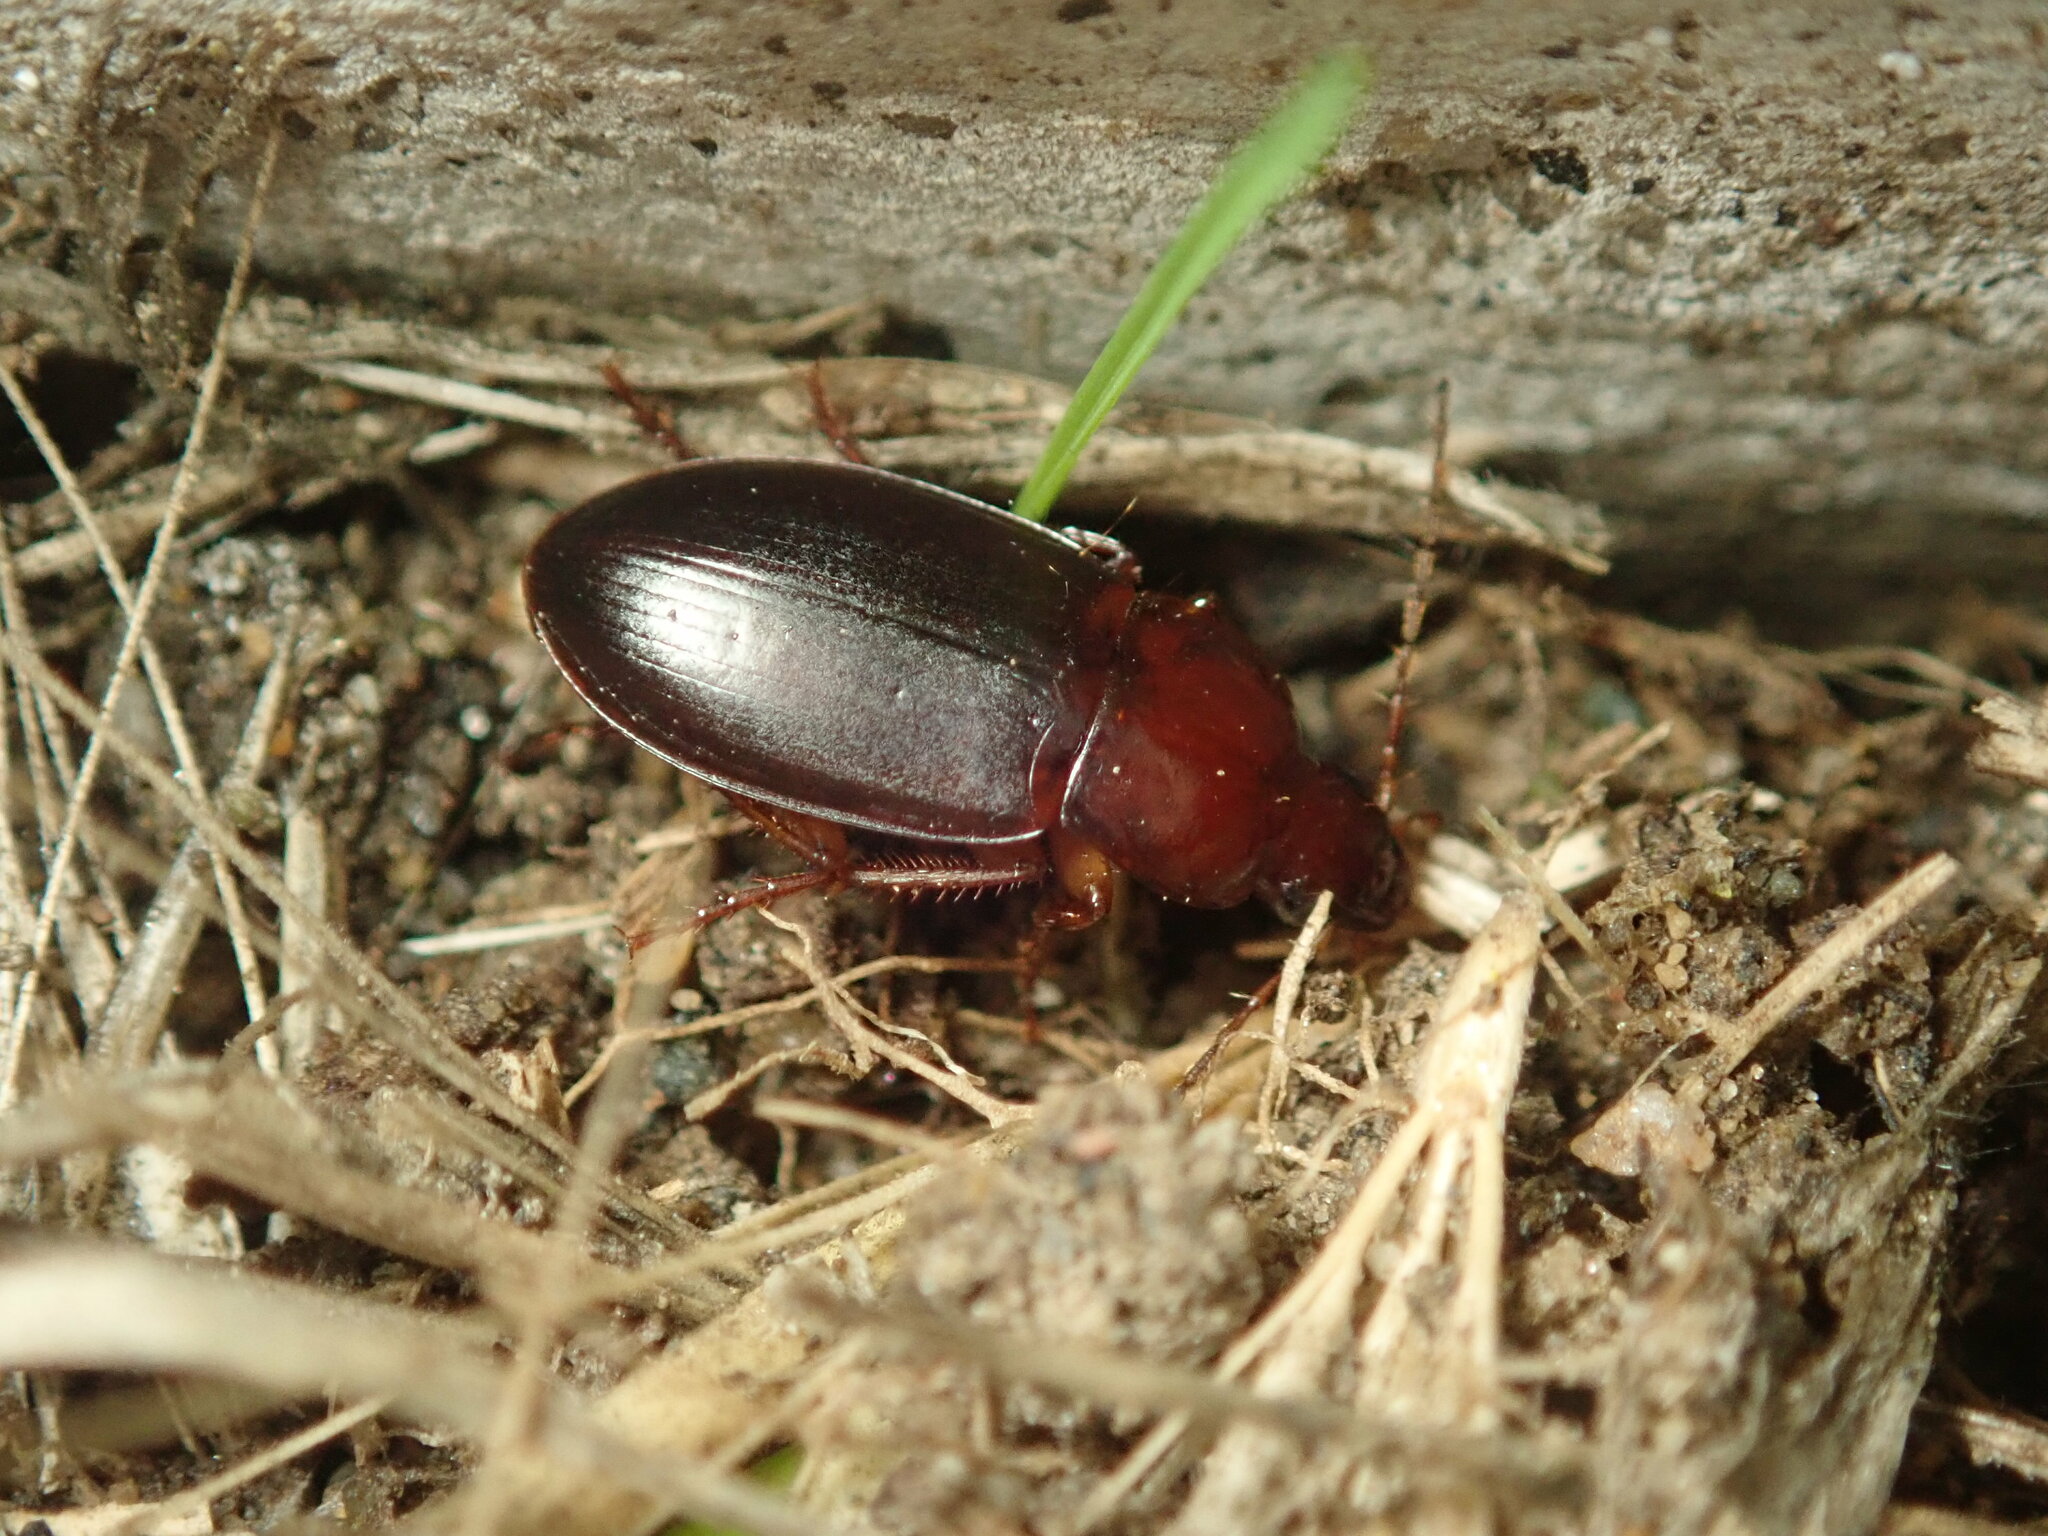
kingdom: Animalia
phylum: Arthropoda
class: Insecta
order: Coleoptera
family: Carabidae
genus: Calathus
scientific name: Calathus ruficollis
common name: Red-collared harp ground beetle
